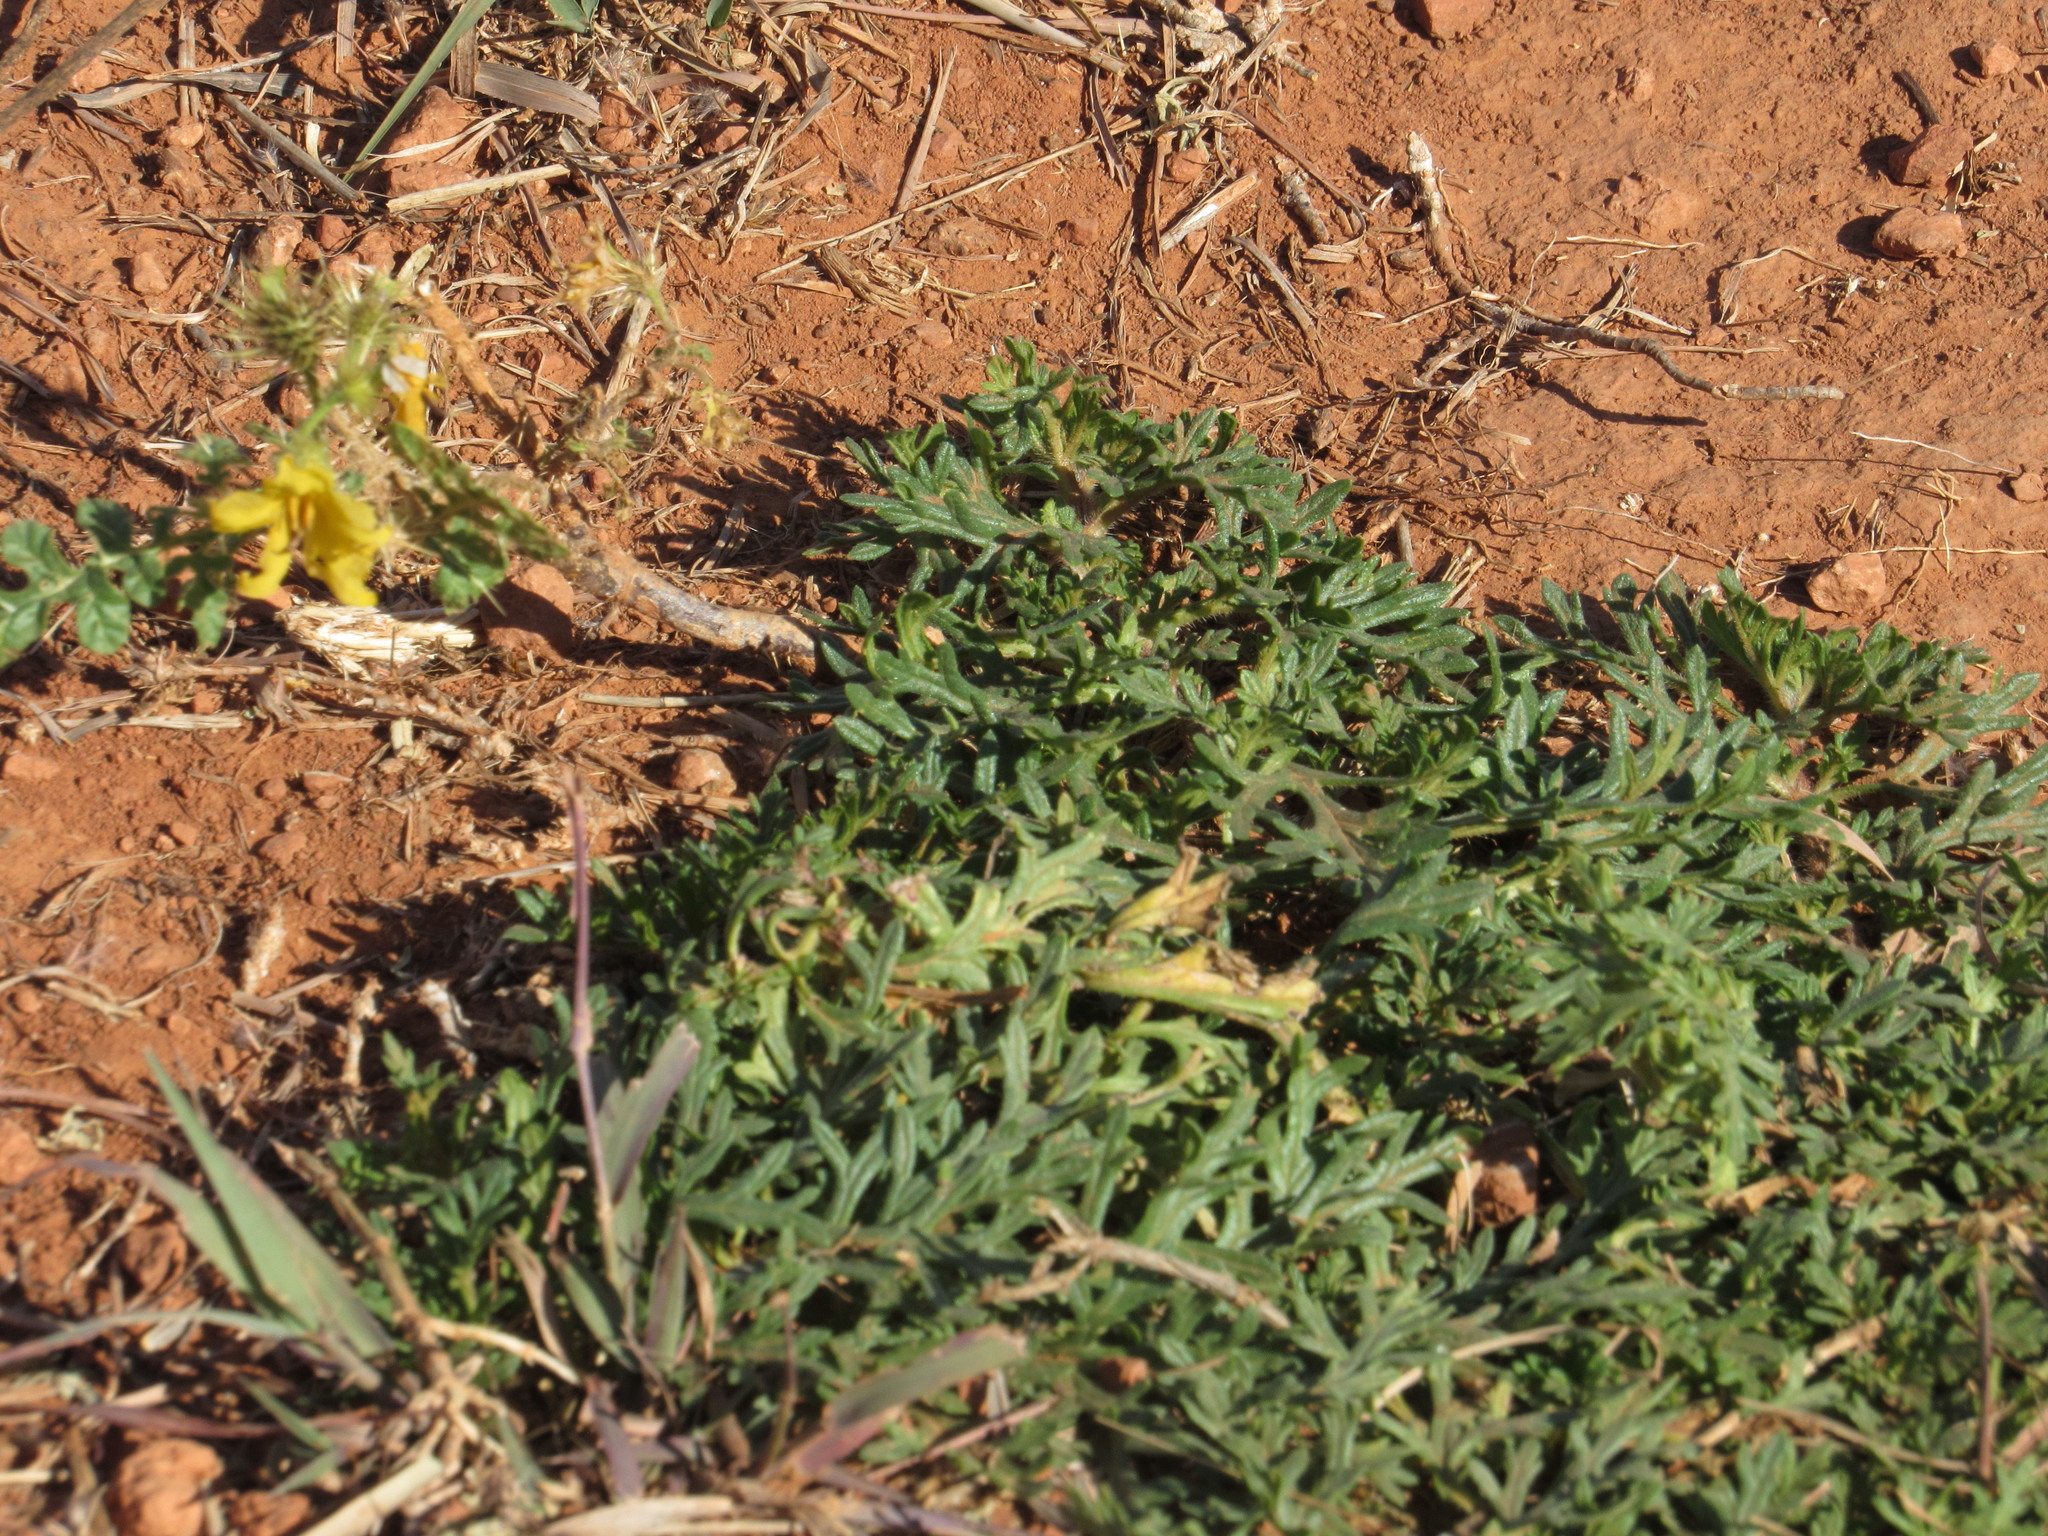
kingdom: Plantae
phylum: Tracheophyta
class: Magnoliopsida
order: Solanales
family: Solanaceae
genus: Solanum
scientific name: Solanum angustifolium
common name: Buffalobur nightshade
